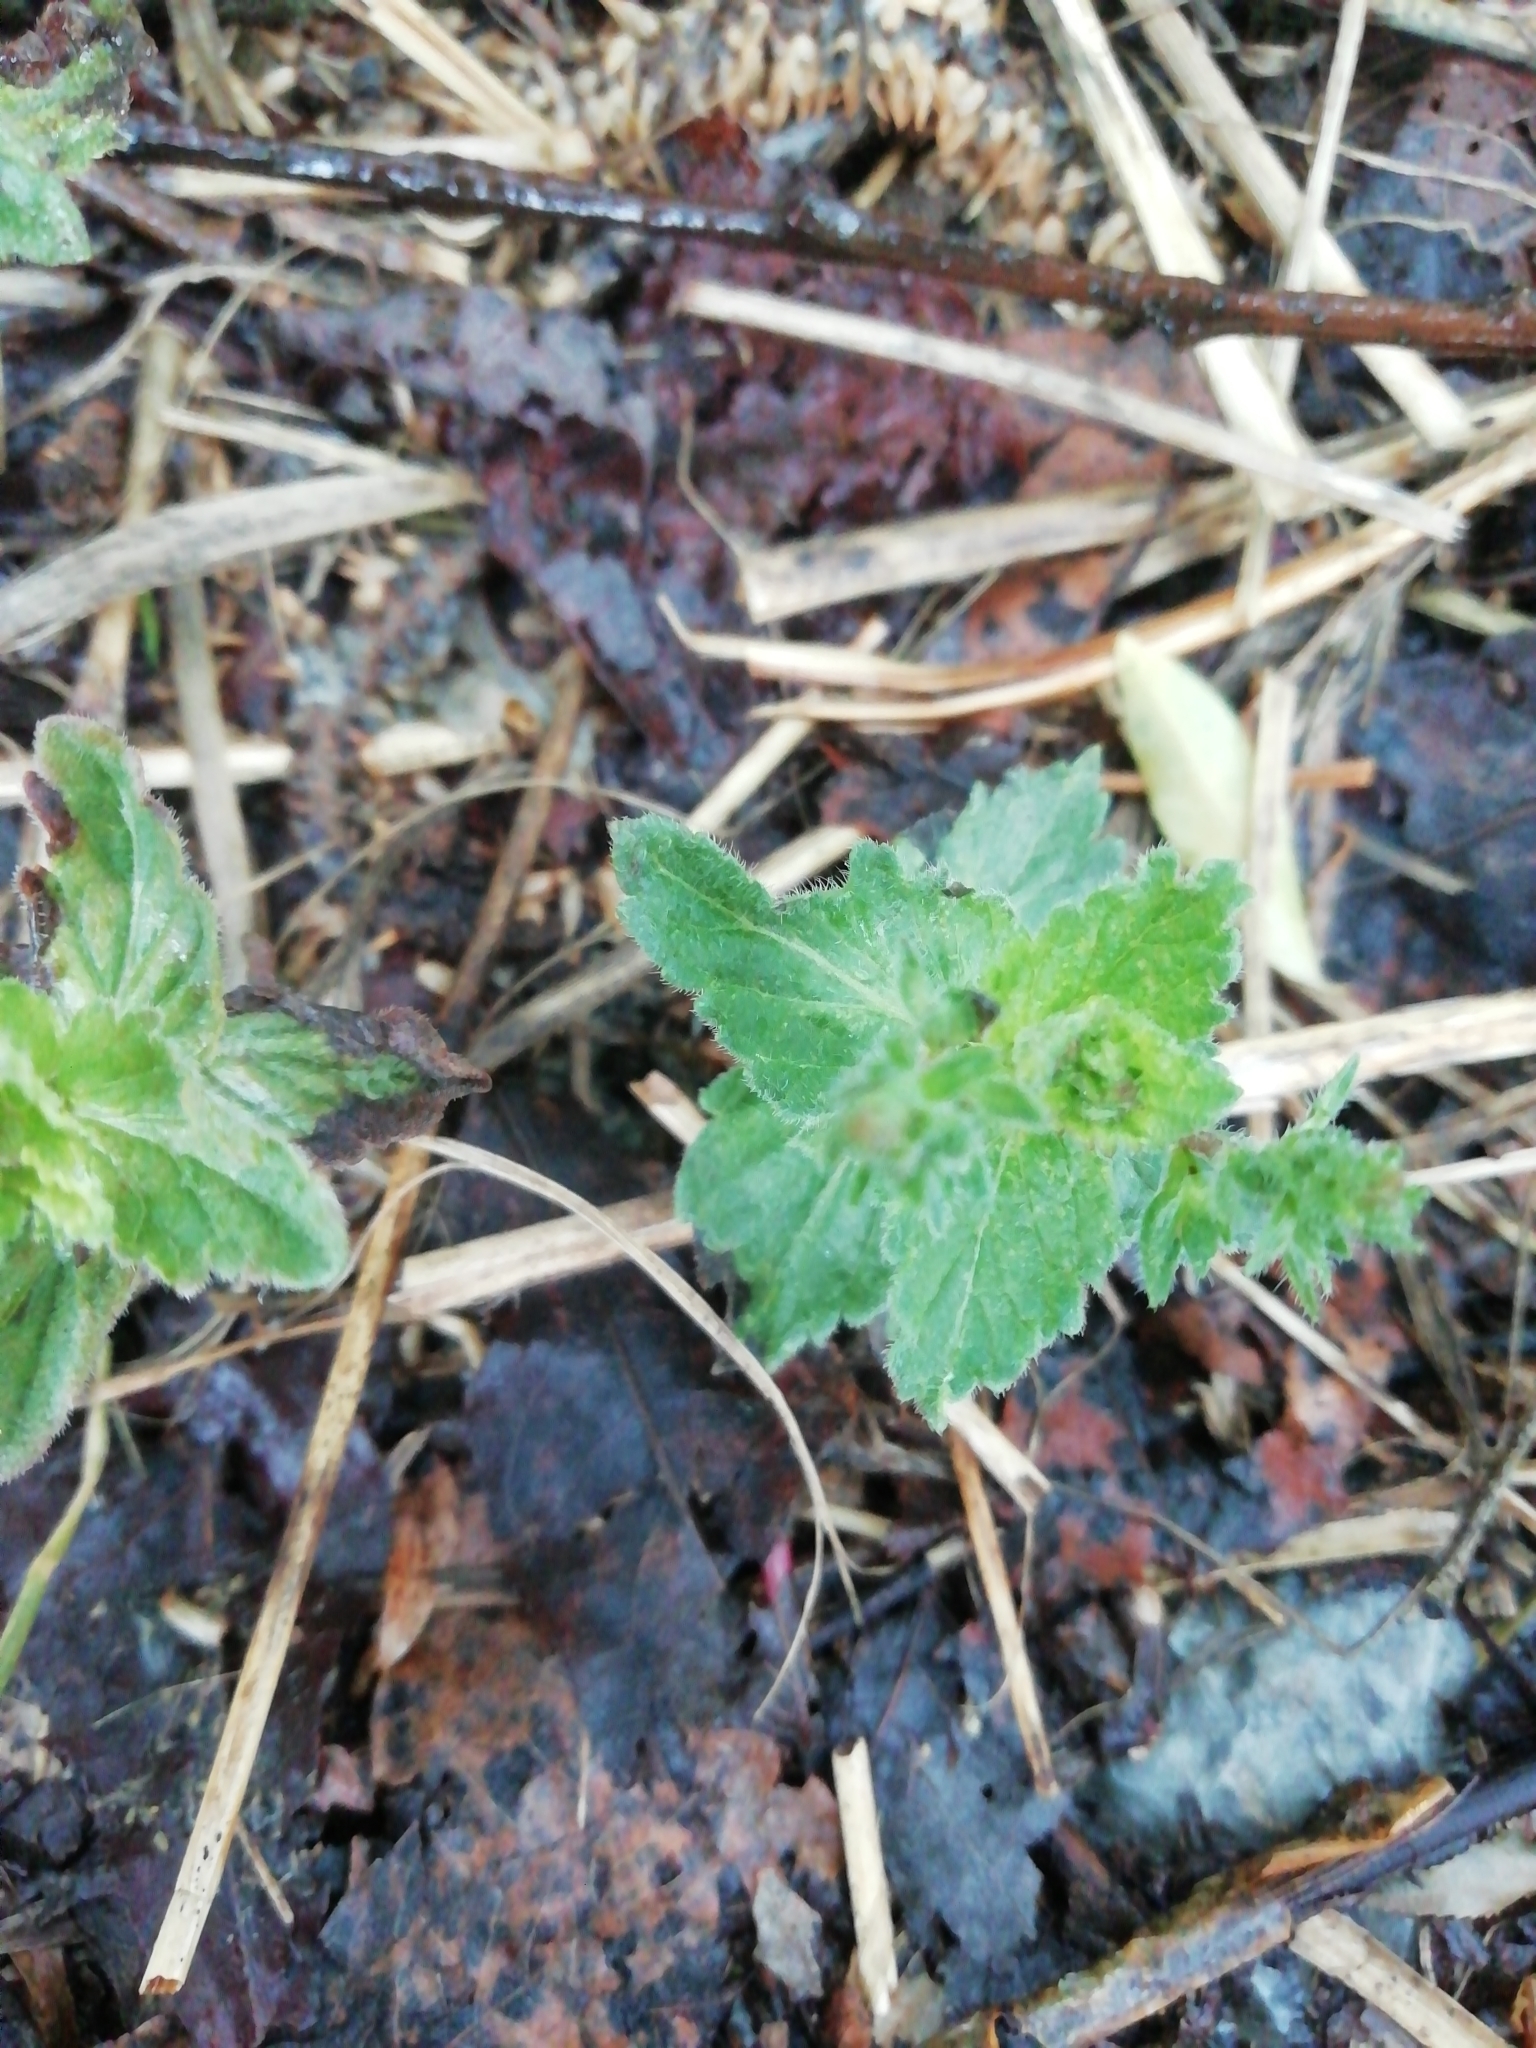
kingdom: Plantae
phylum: Tracheophyta
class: Magnoliopsida
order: Lamiales
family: Plantaginaceae
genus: Veronica
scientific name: Veronica chamaedrys
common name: Germander speedwell
